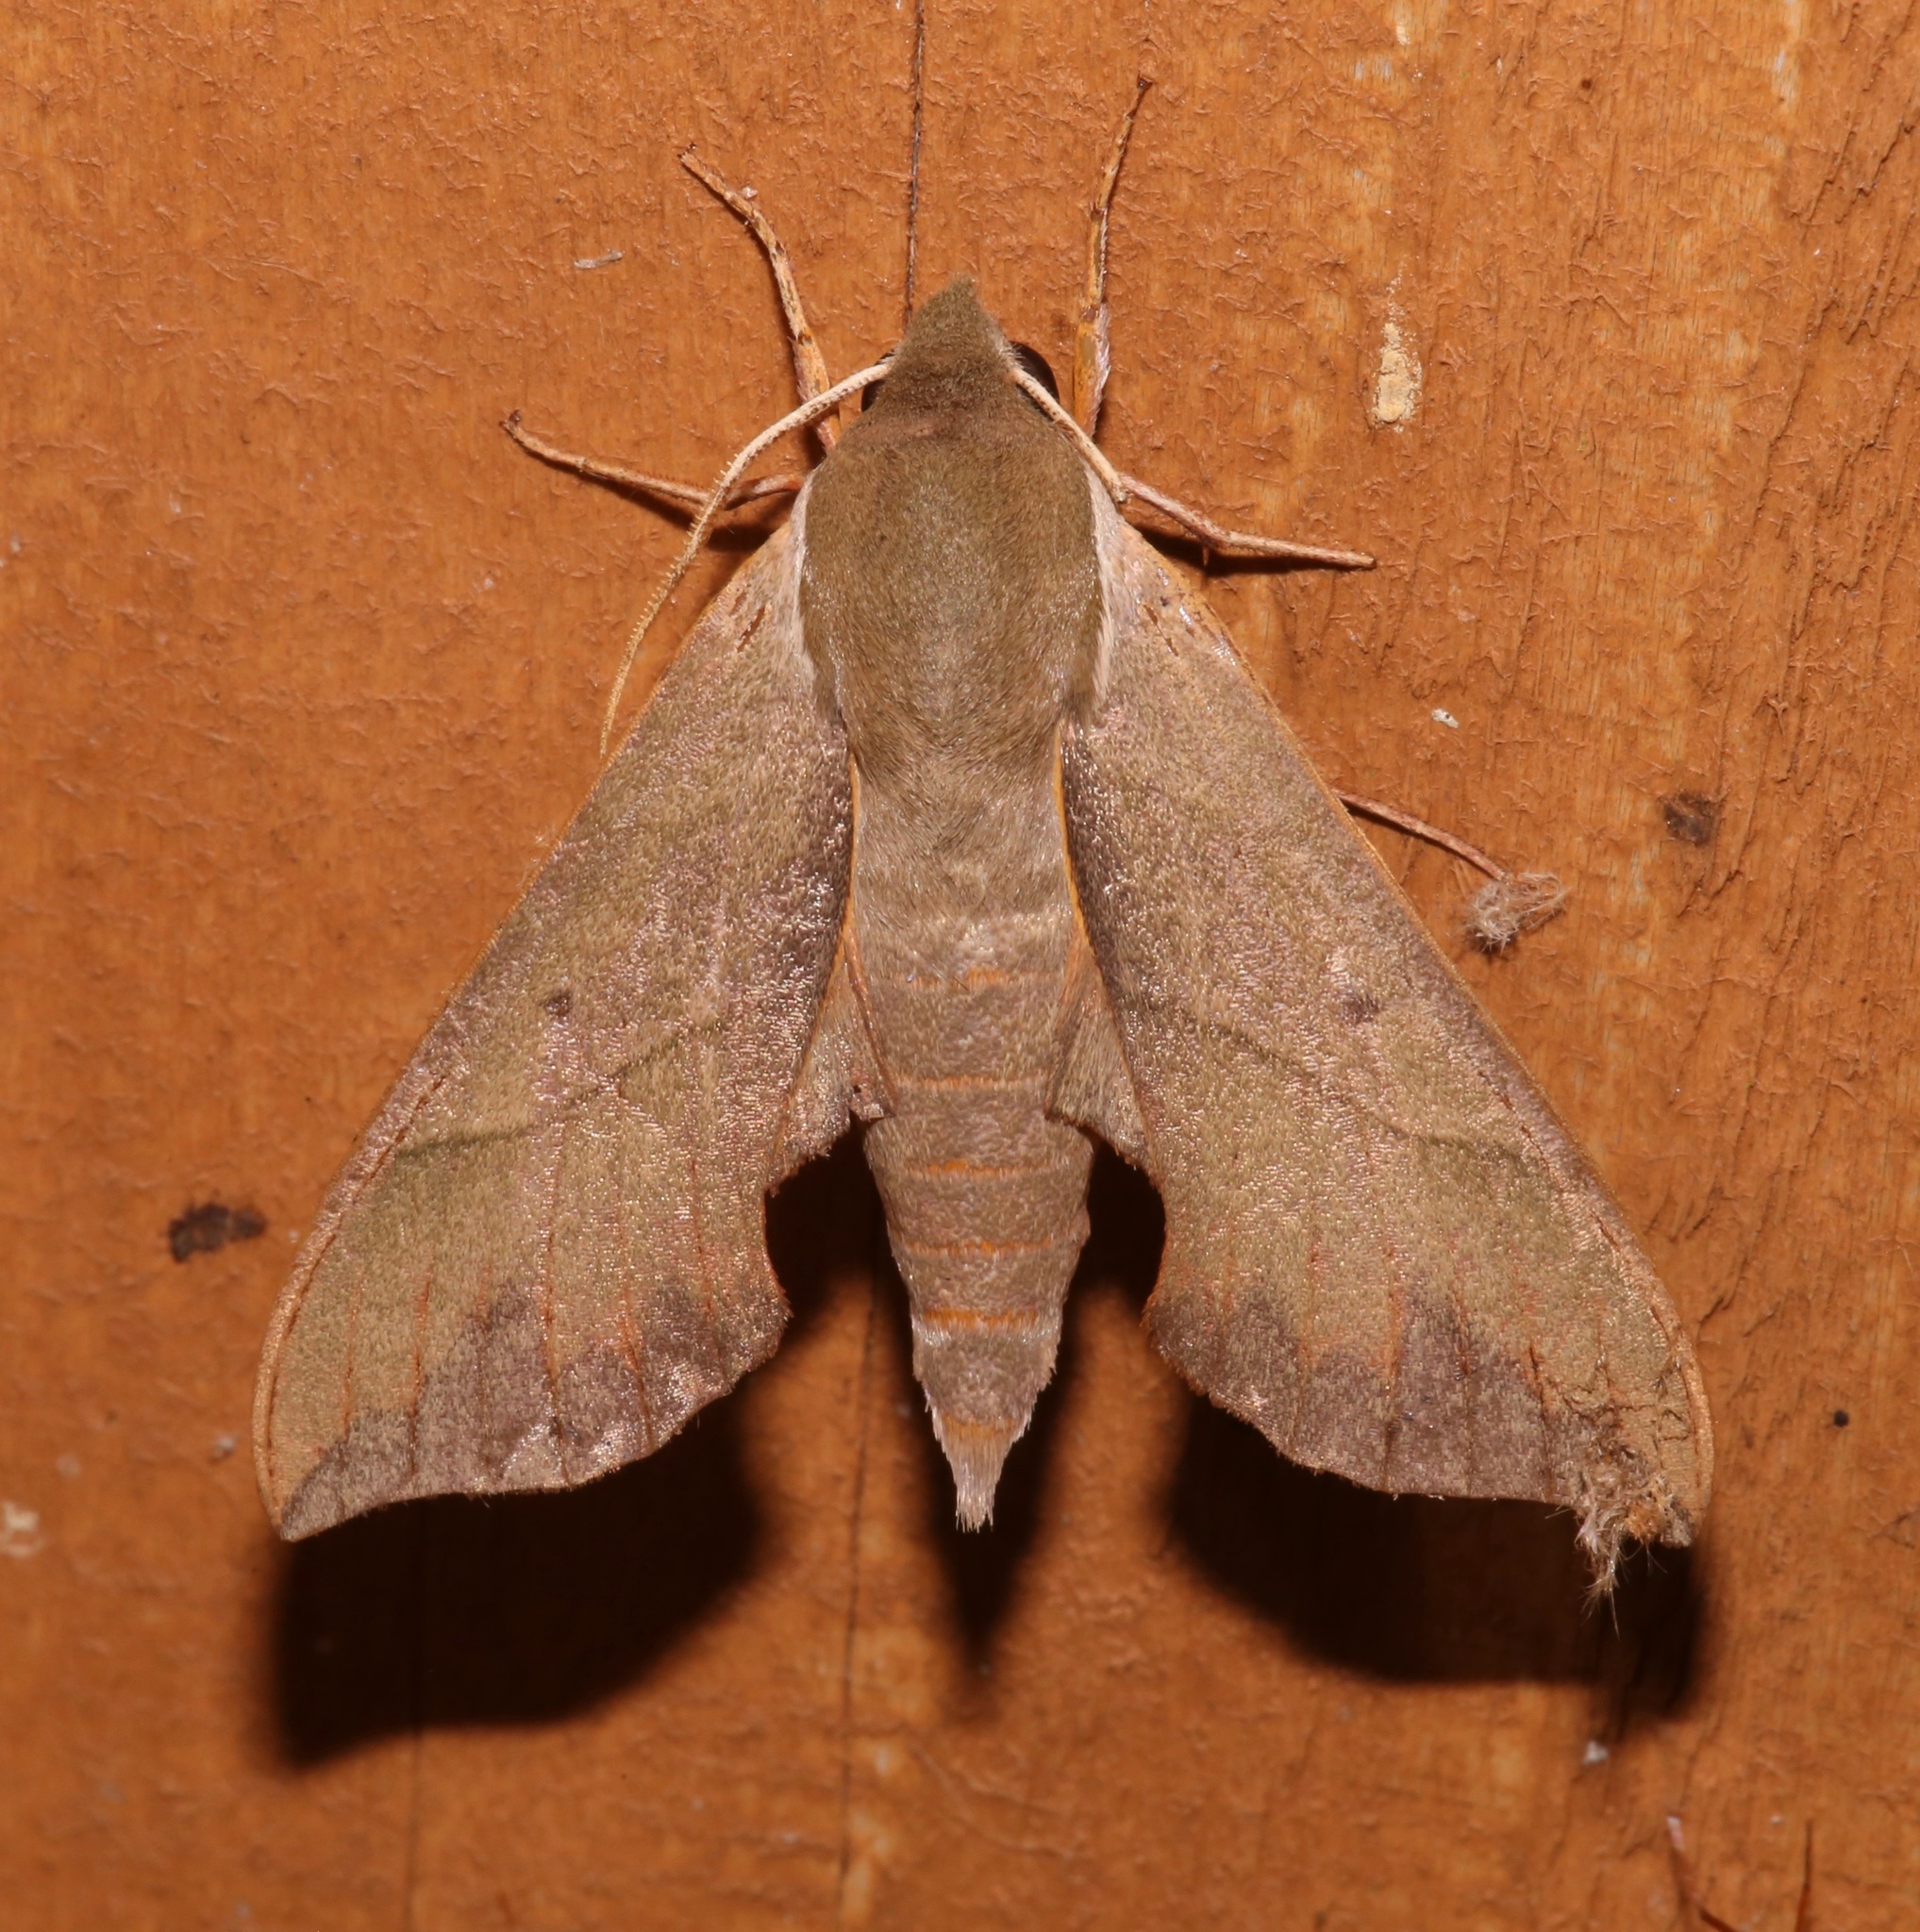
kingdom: Animalia
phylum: Arthropoda
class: Insecta
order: Lepidoptera
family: Sphingidae
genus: Darapsa
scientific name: Darapsa myron
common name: Hog sphinx
